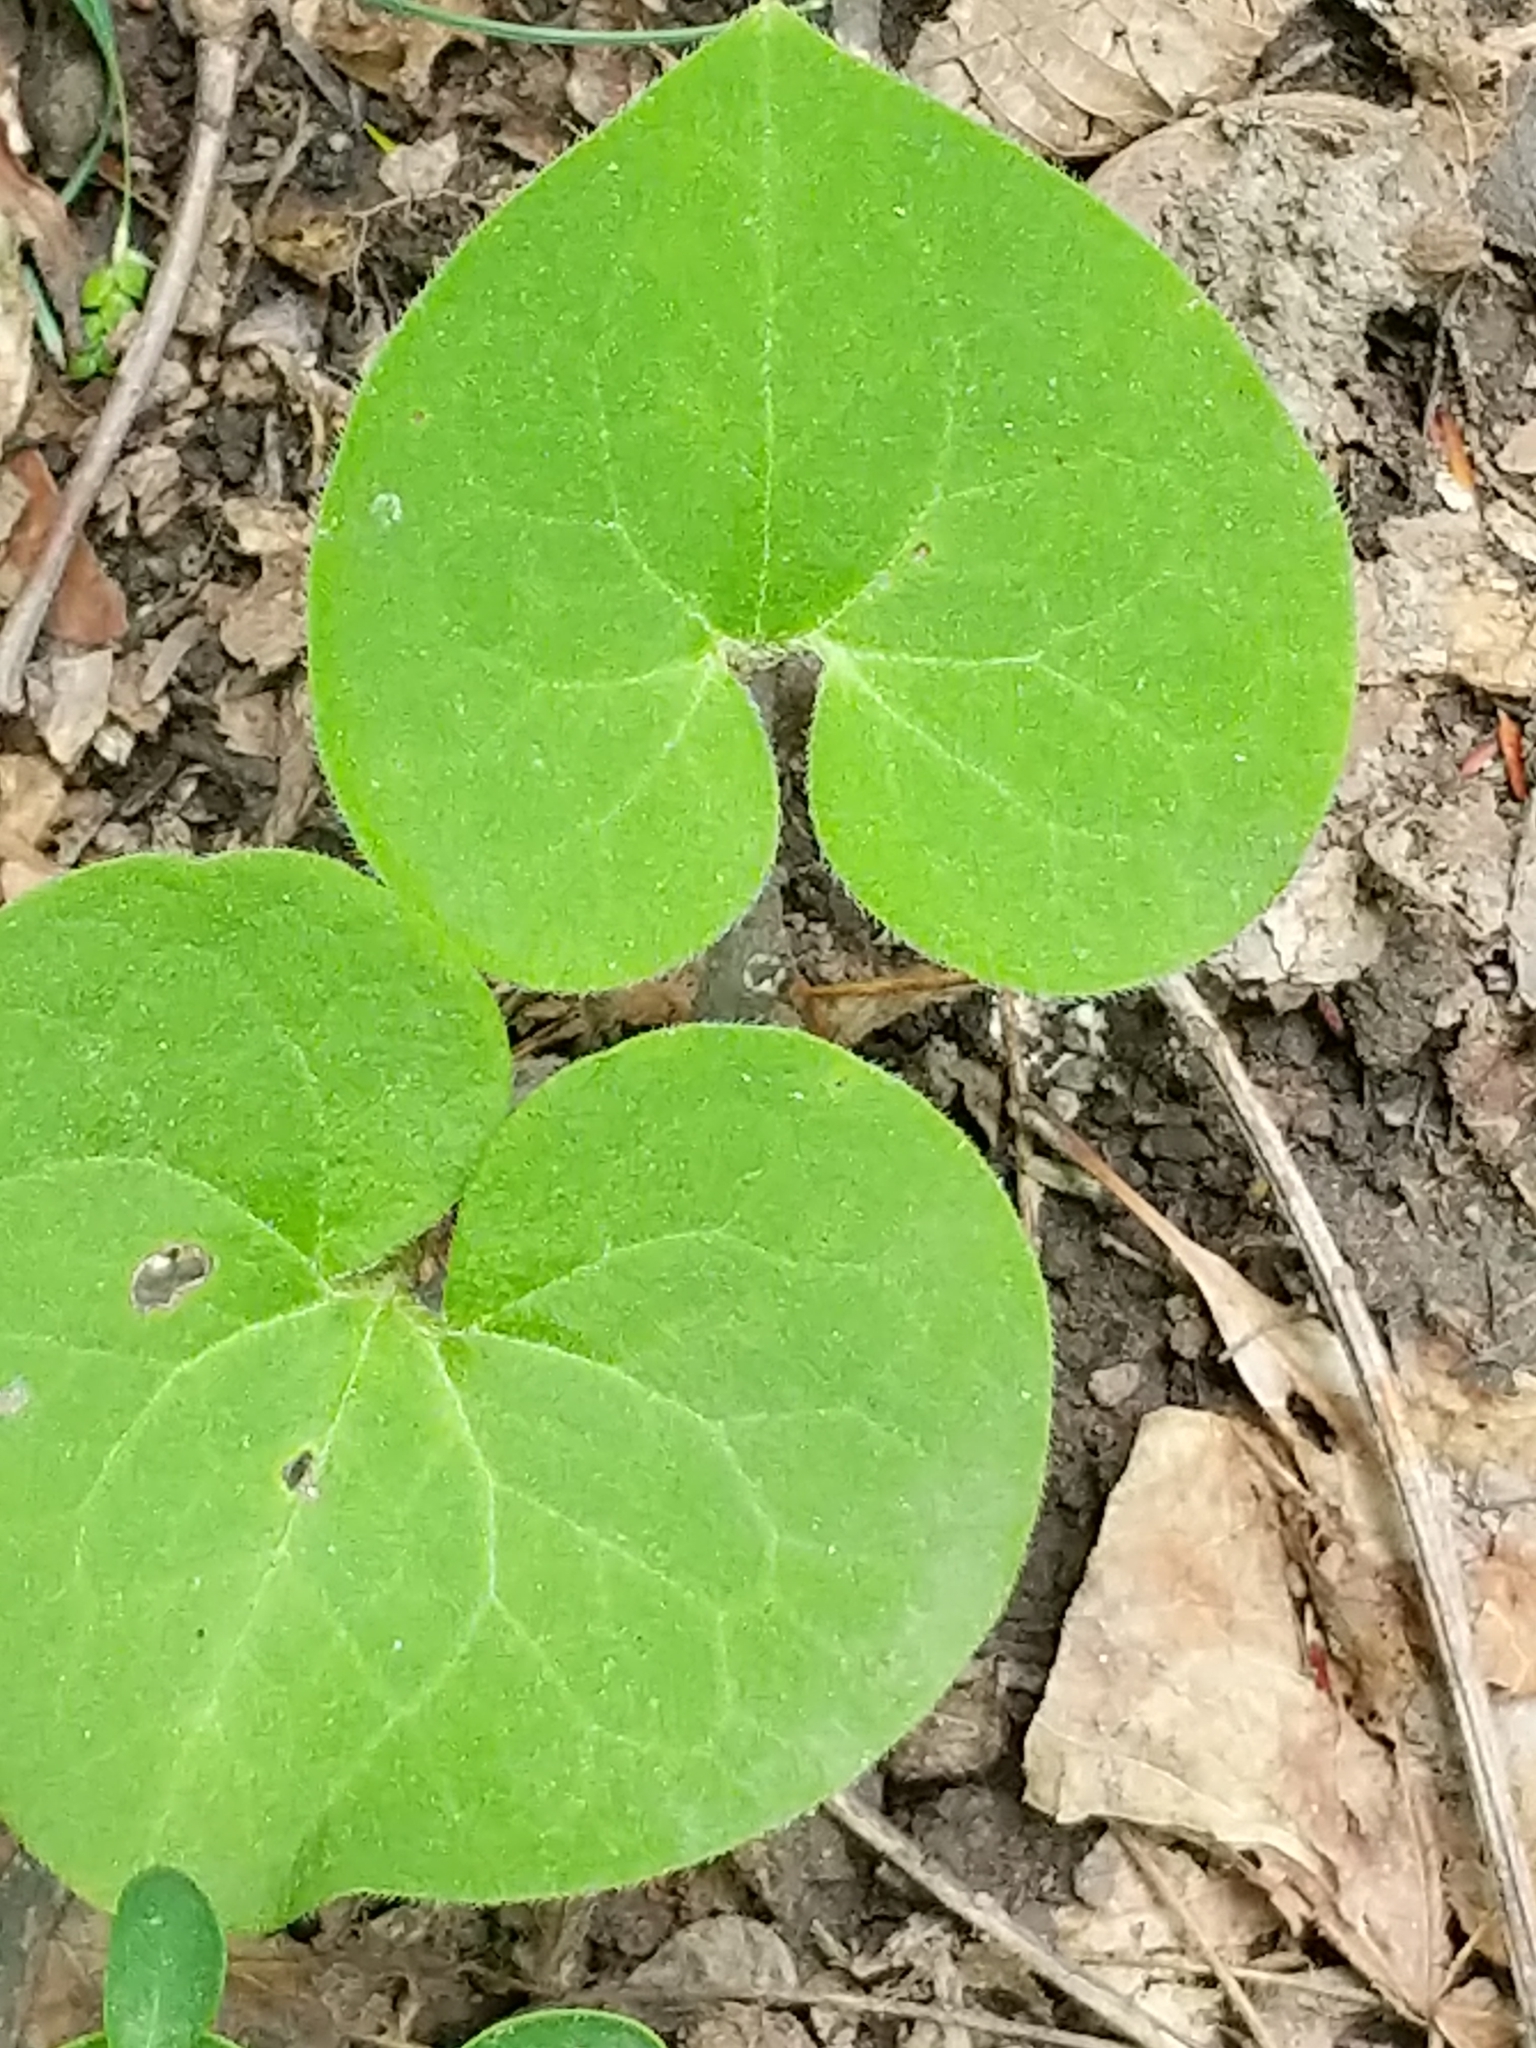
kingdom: Plantae
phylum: Tracheophyta
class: Magnoliopsida
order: Piperales
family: Aristolochiaceae
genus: Asarum
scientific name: Asarum canadense
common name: Wild ginger
